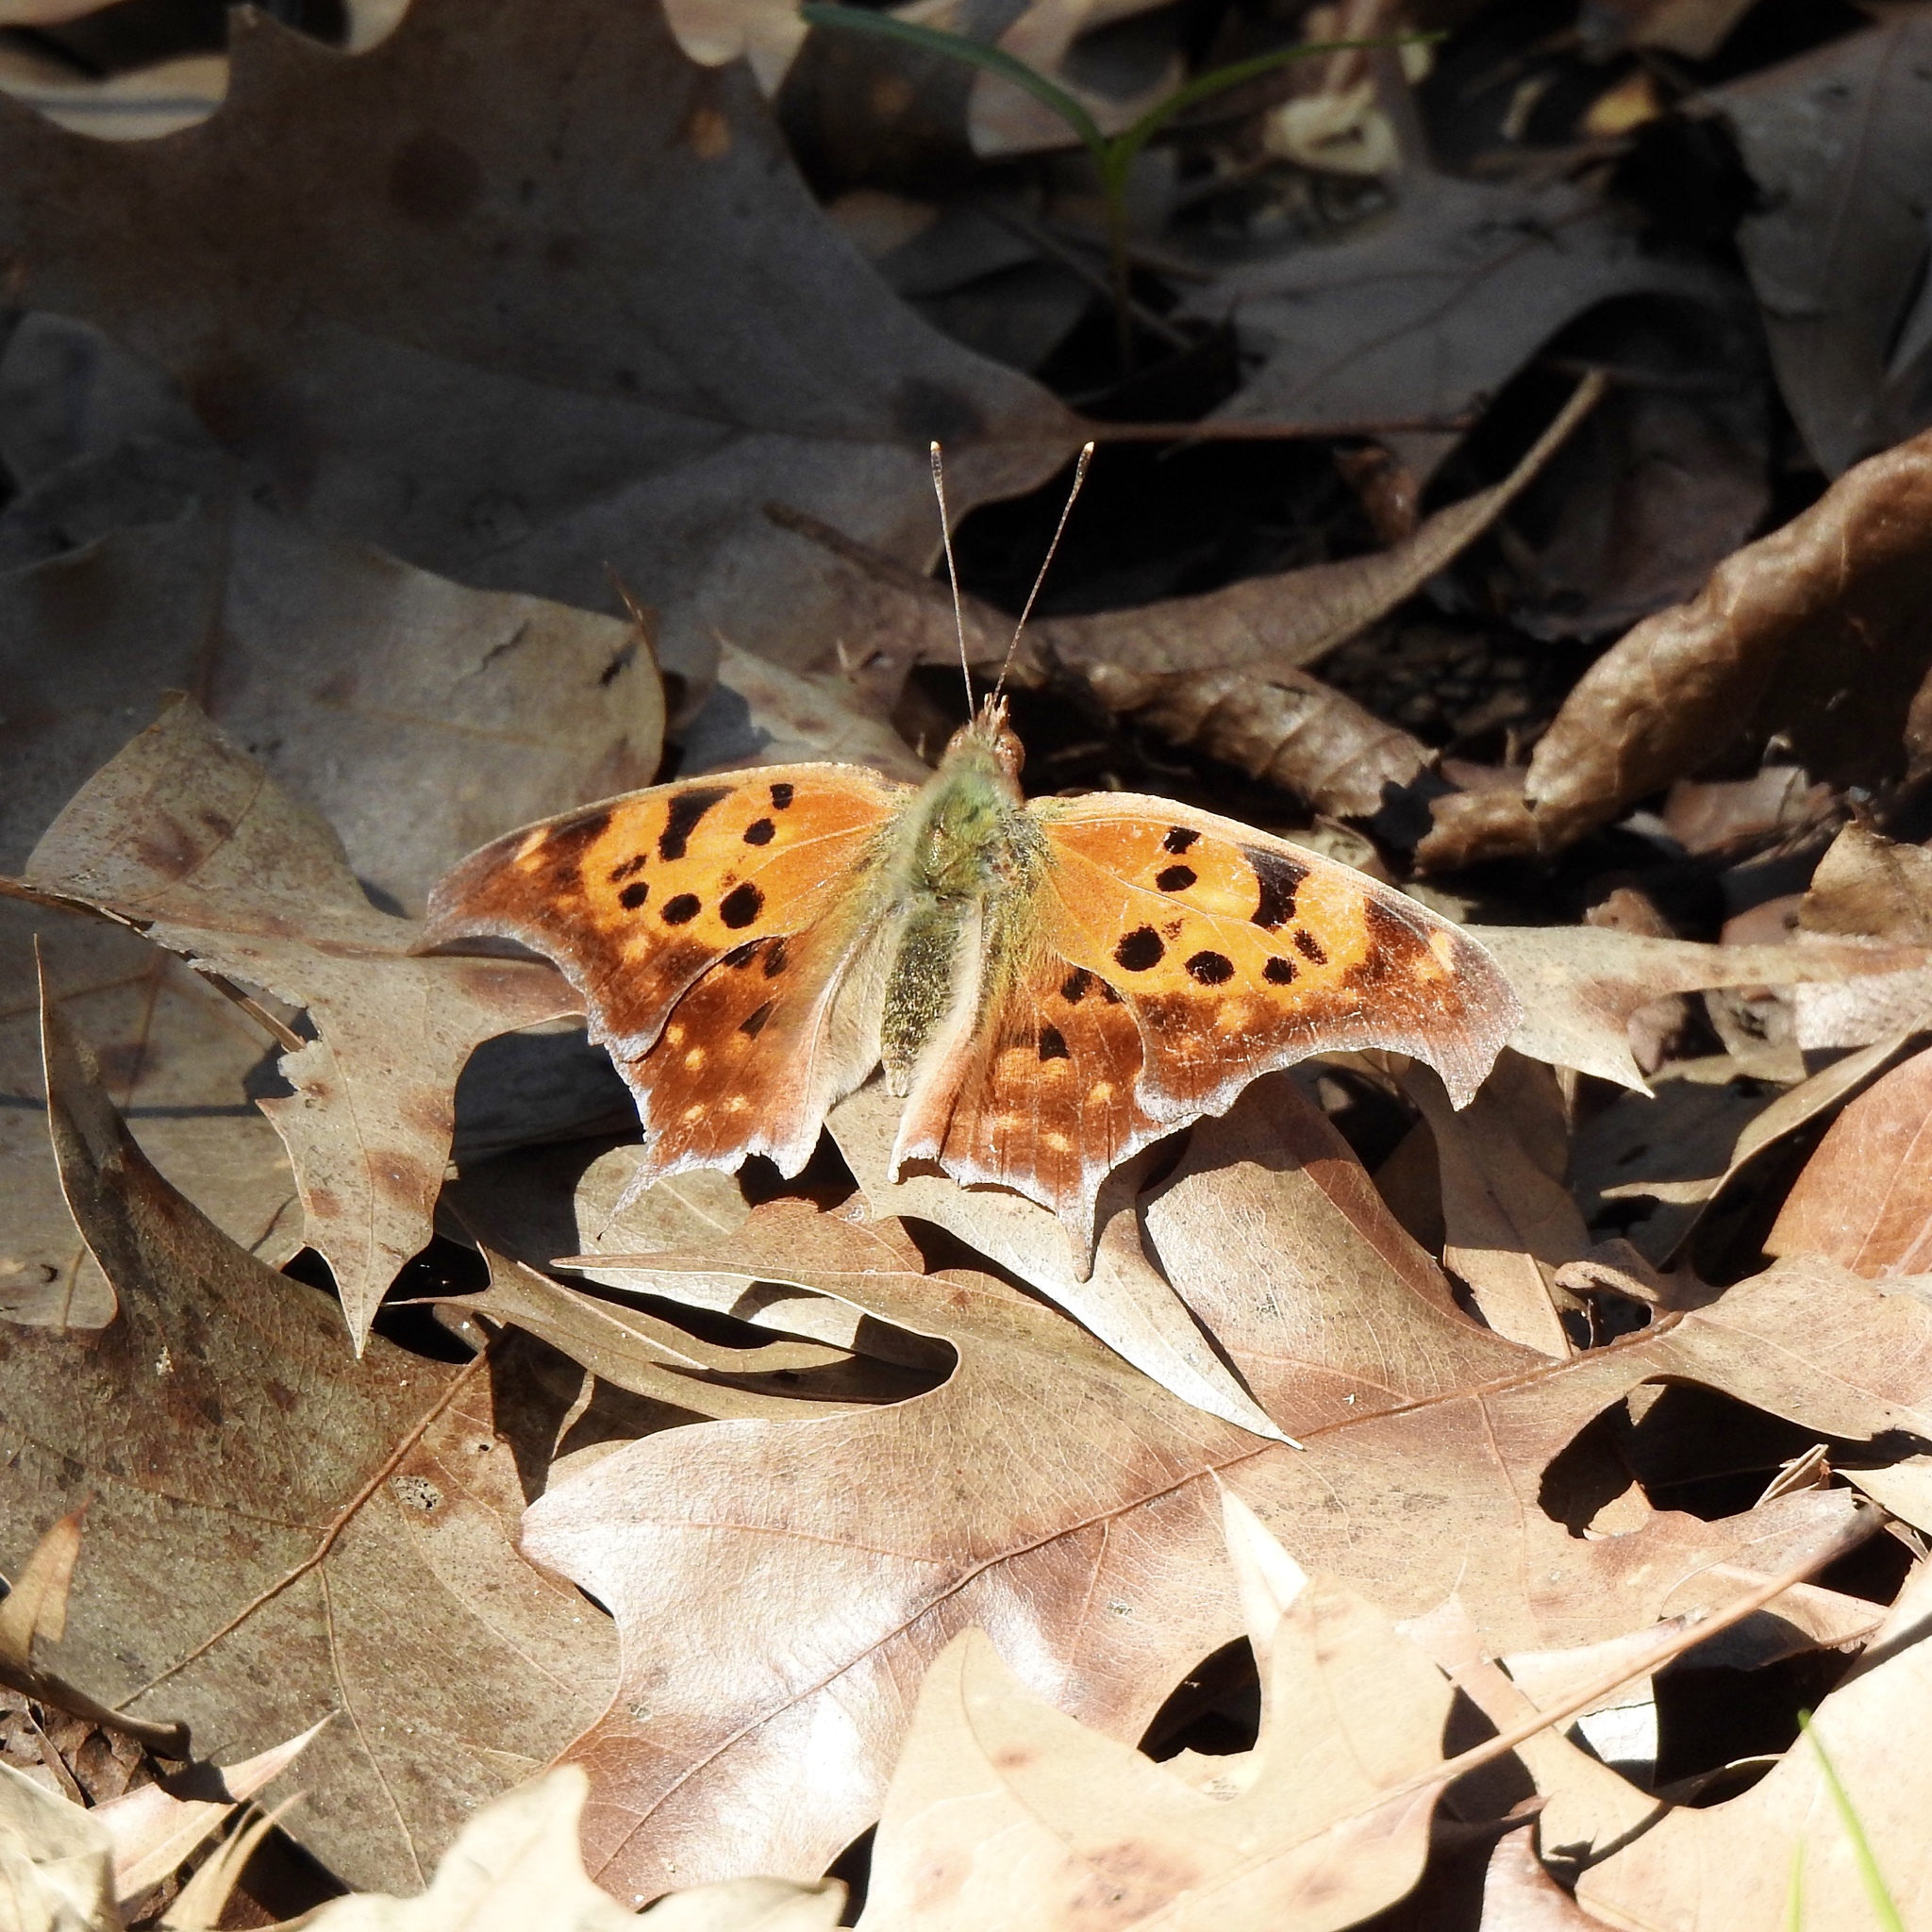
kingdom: Animalia
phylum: Arthropoda
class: Insecta
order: Lepidoptera
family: Nymphalidae
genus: Polygonia
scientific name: Polygonia interrogationis
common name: Question mark
